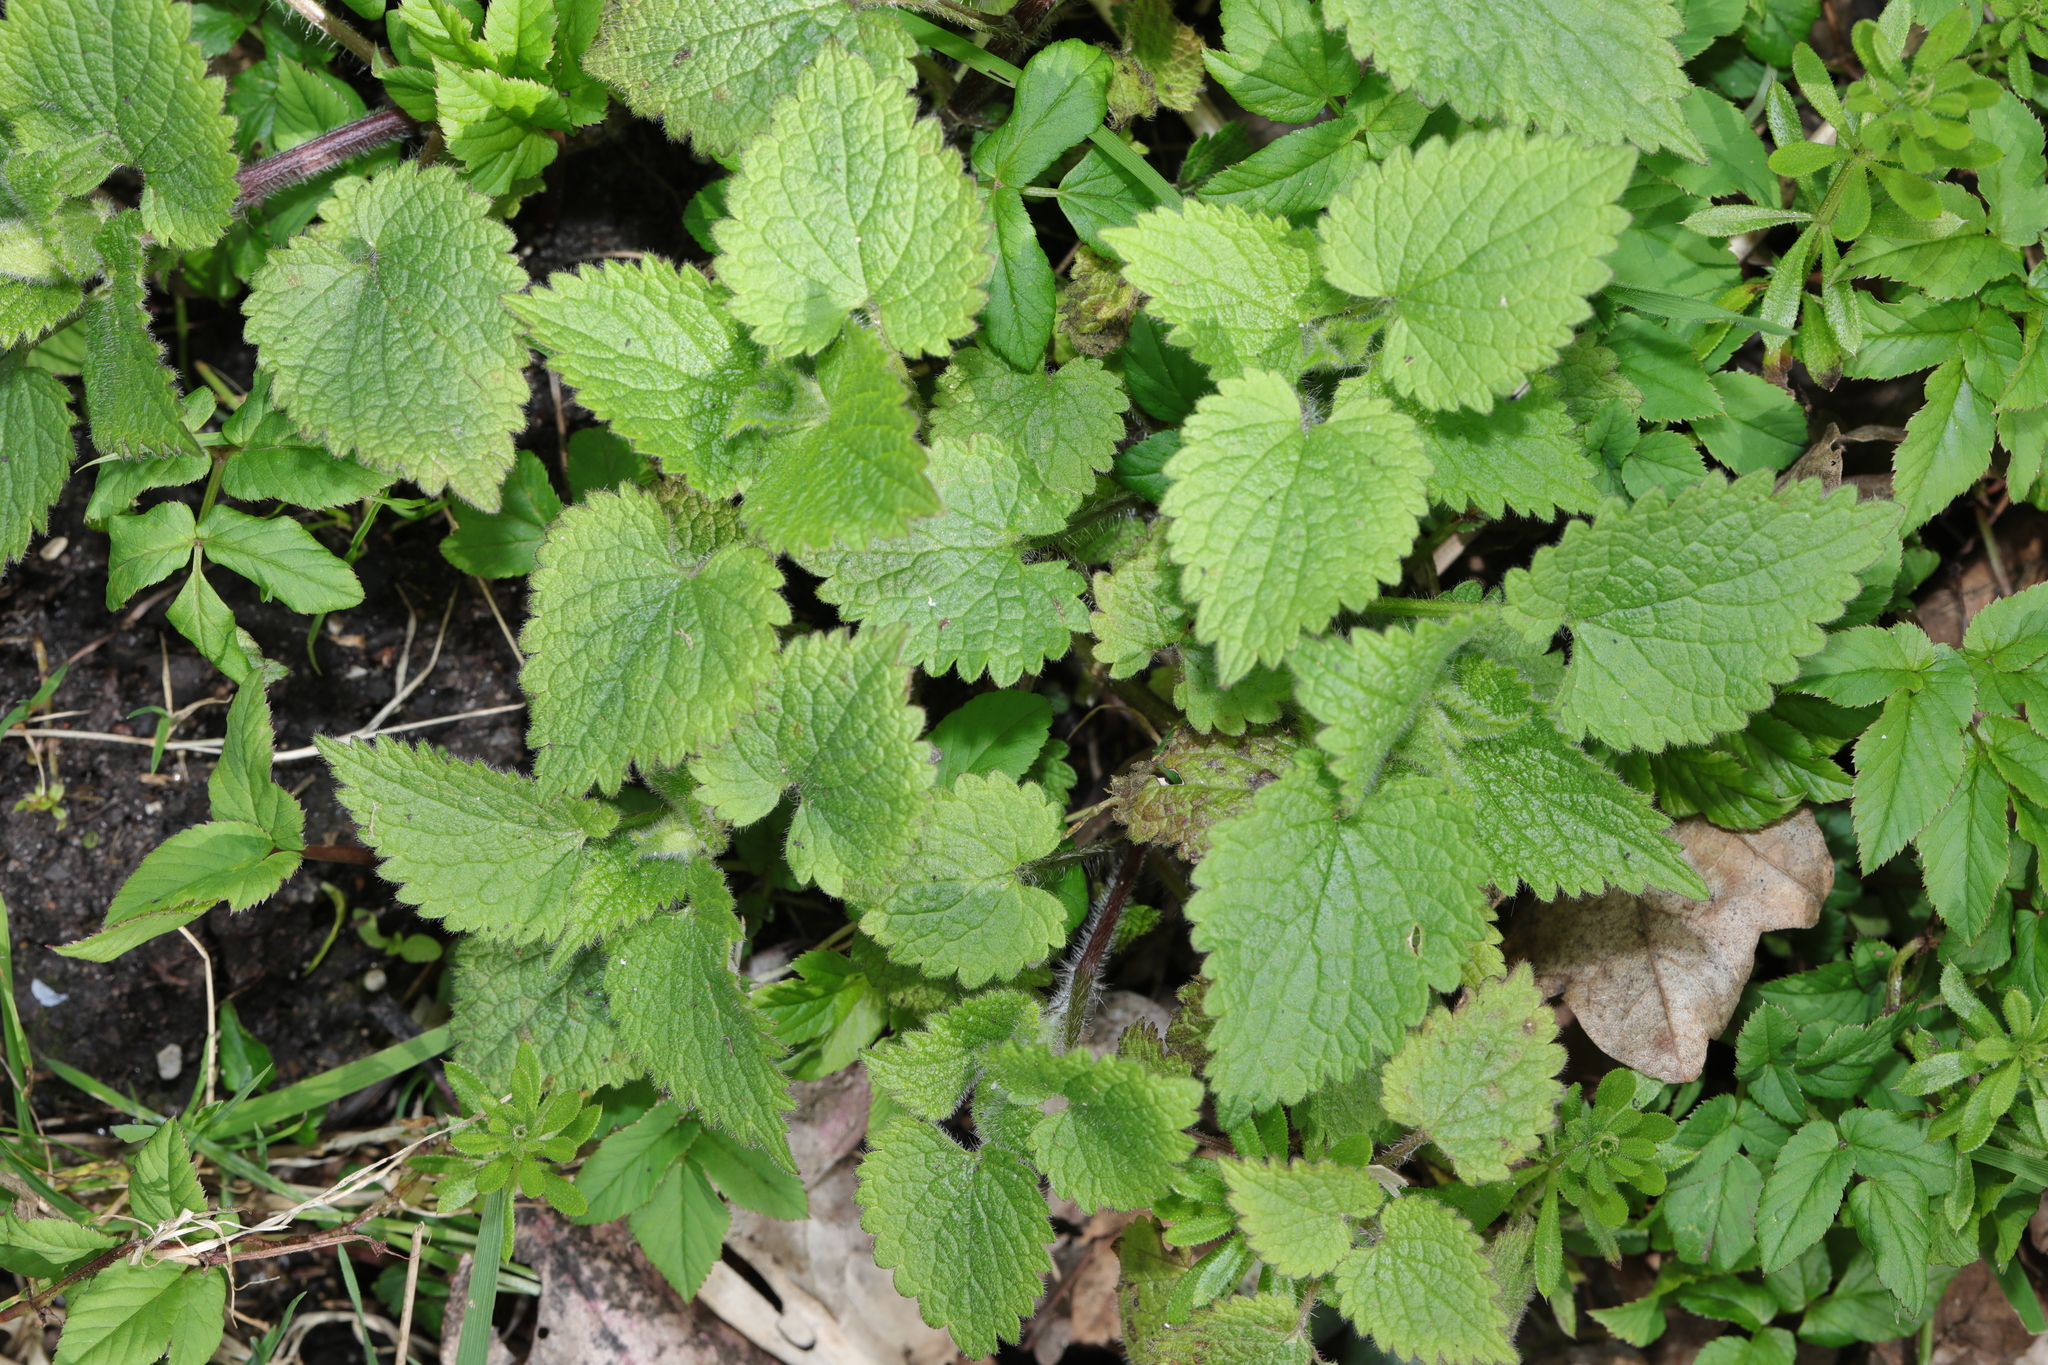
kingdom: Plantae
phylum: Tracheophyta
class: Magnoliopsida
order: Lamiales
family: Lamiaceae
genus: Lamium
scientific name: Lamium album
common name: White dead-nettle
